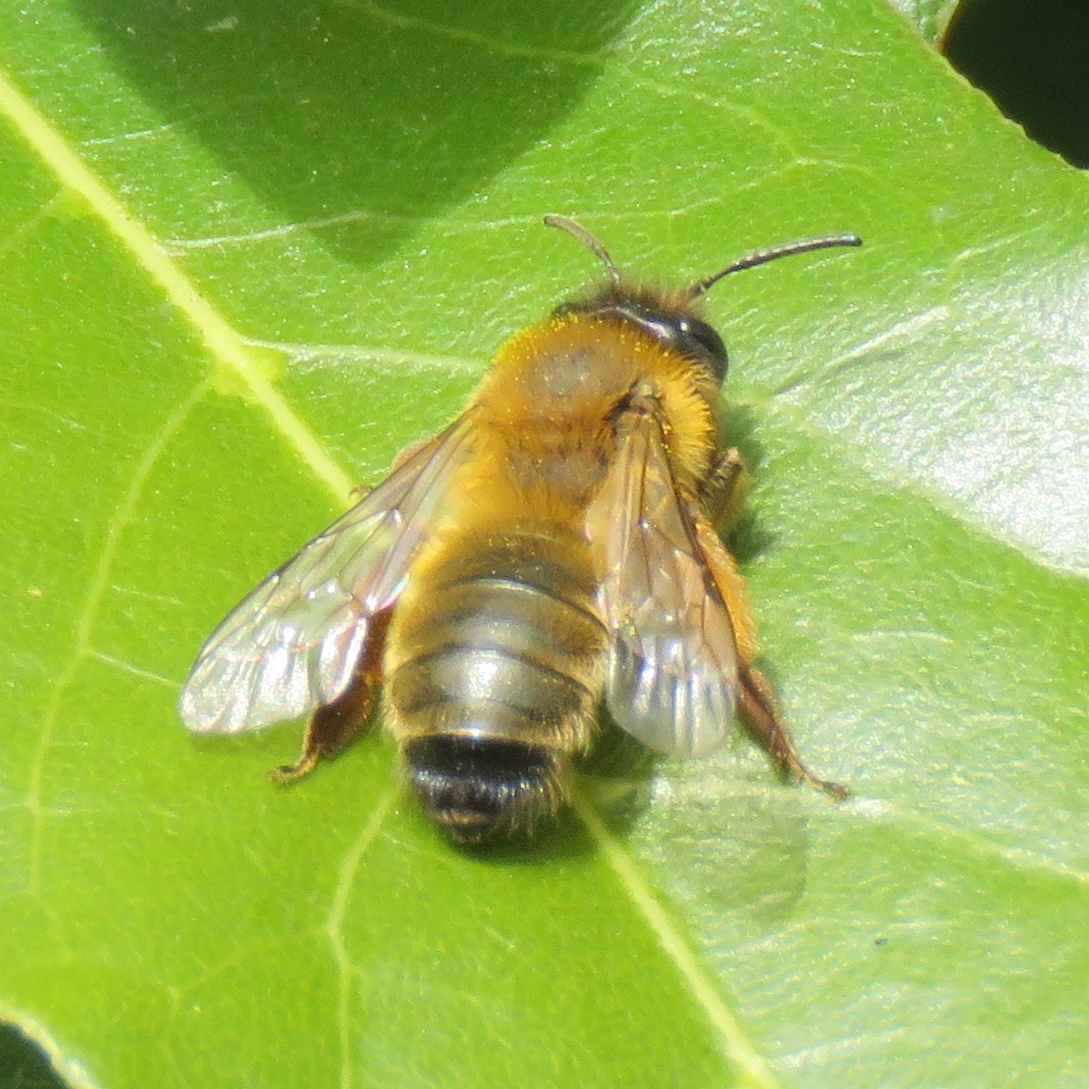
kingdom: Animalia
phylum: Arthropoda
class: Insecta
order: Hymenoptera
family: Andrenidae
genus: Andrena
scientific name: Andrena nigroaenea
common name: Buffish mining bee
